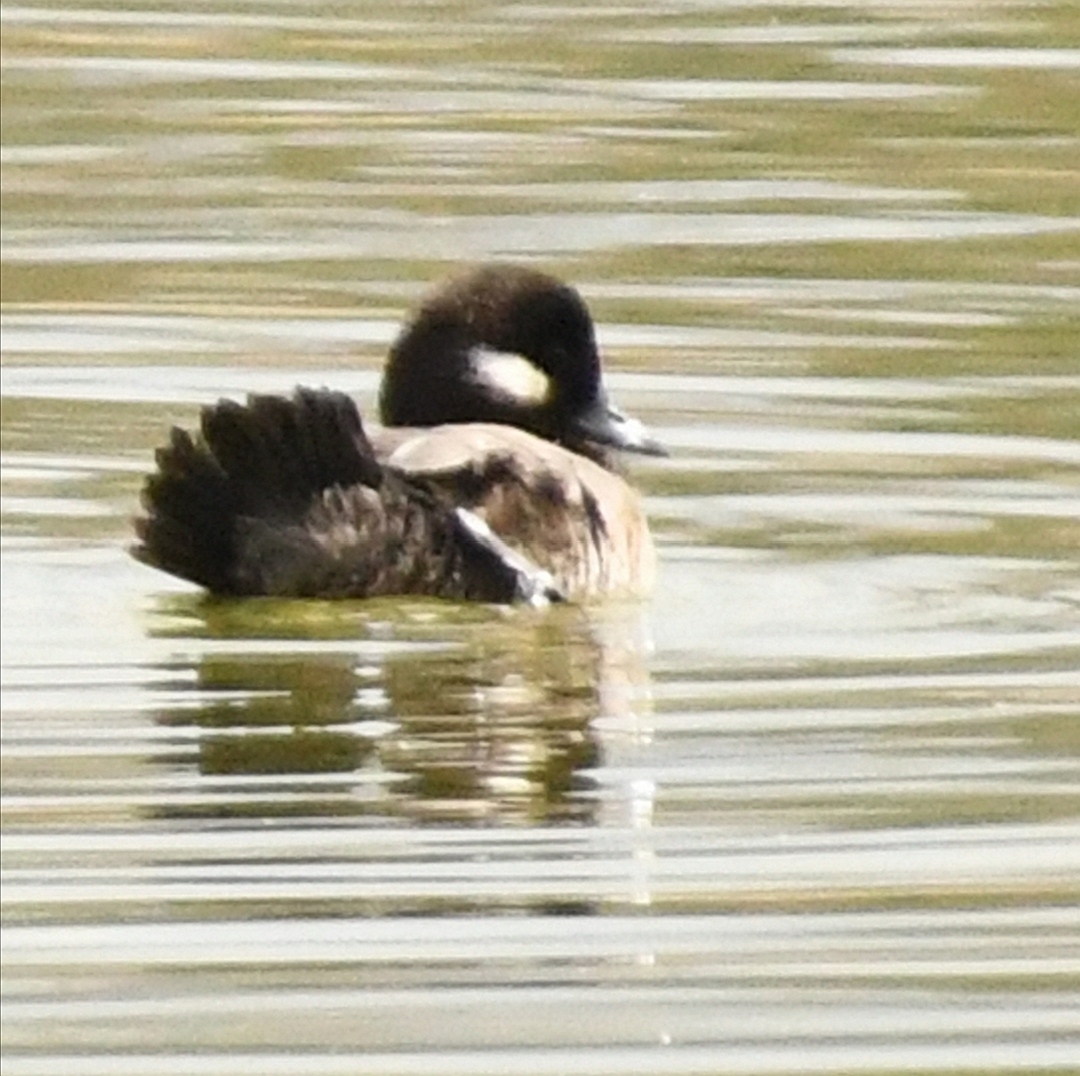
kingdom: Animalia
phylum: Chordata
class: Aves
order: Anseriformes
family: Anatidae
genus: Bucephala
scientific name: Bucephala albeola
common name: Bufflehead
